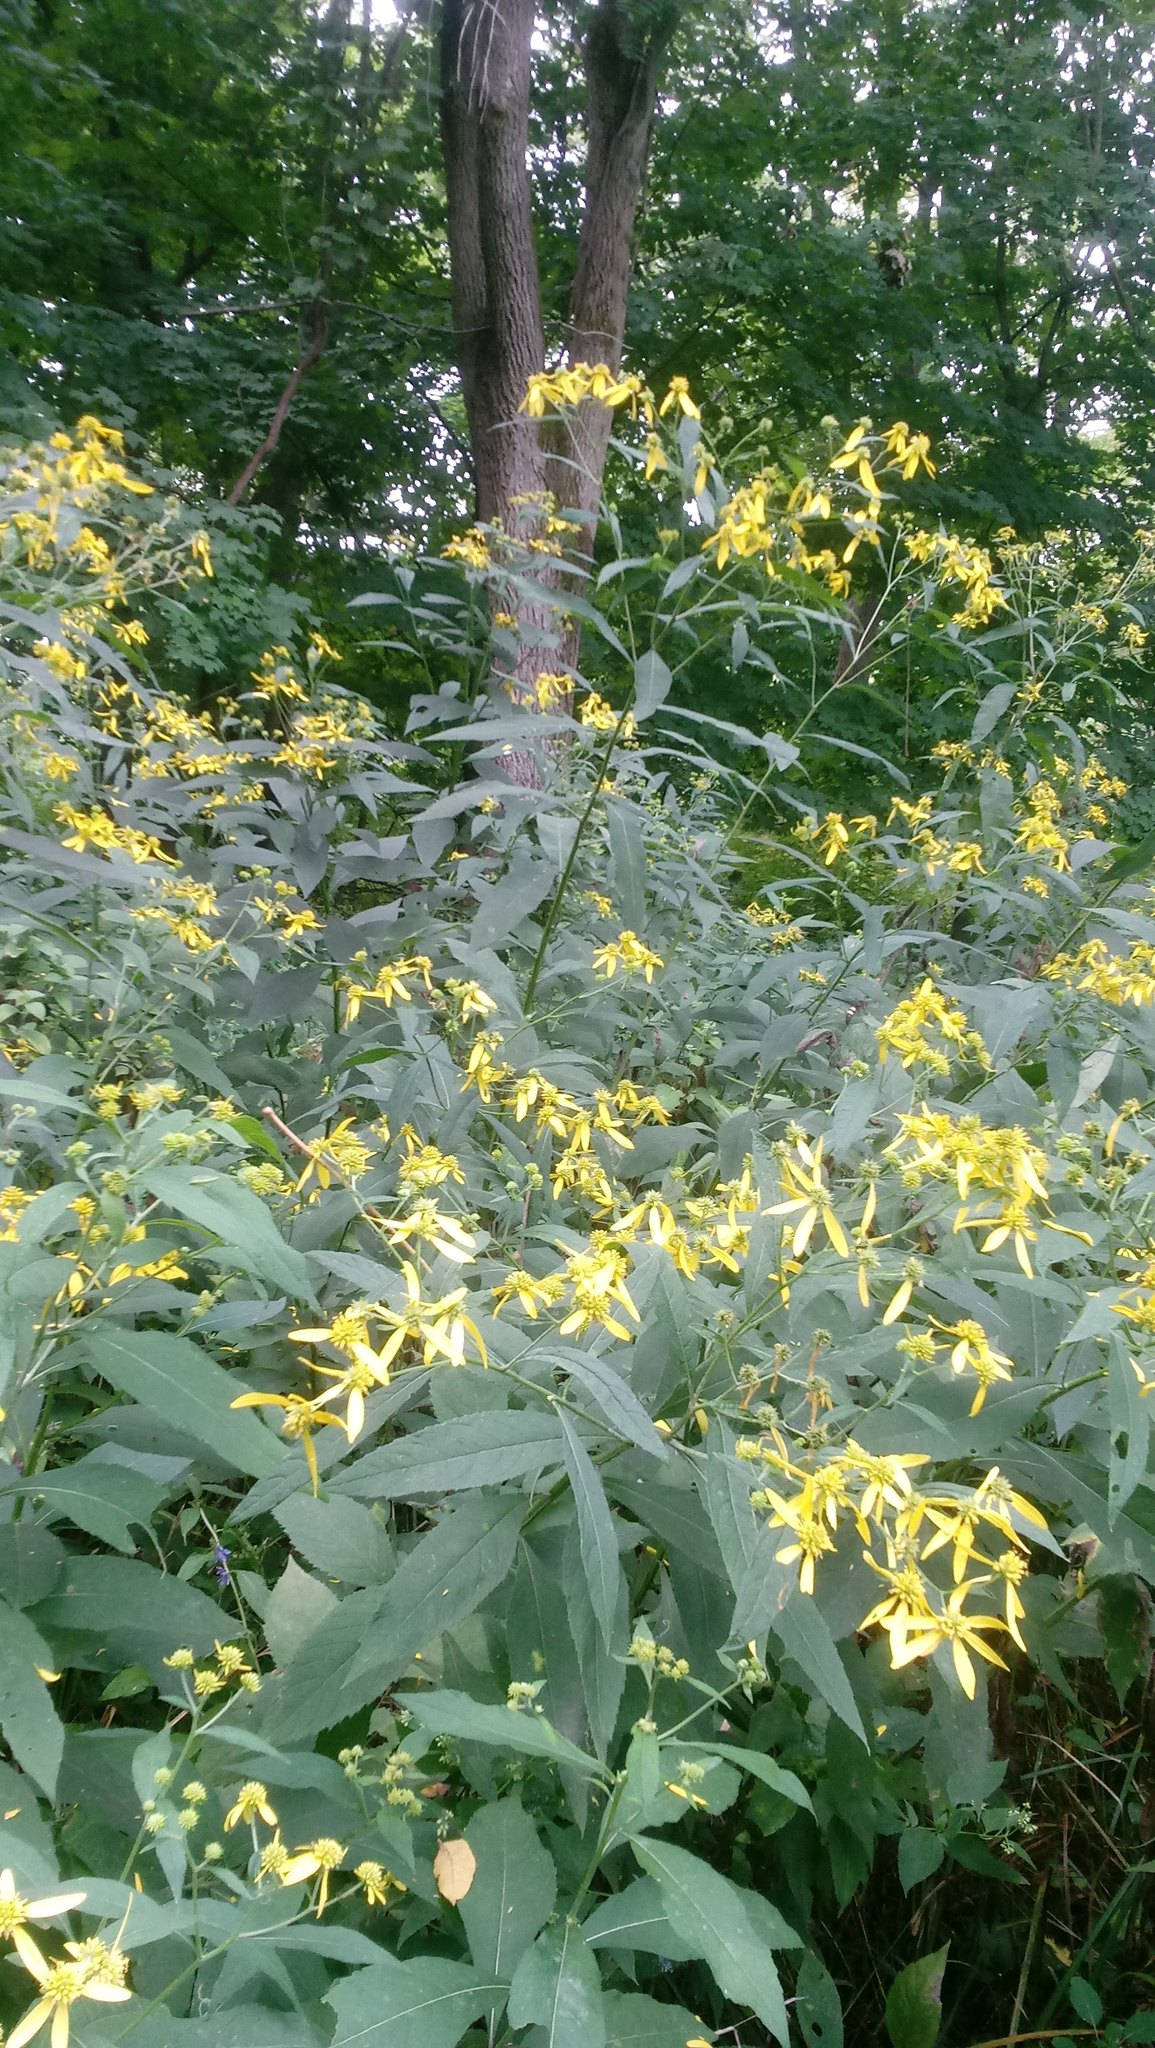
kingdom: Plantae
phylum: Tracheophyta
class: Magnoliopsida
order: Asterales
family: Asteraceae
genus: Verbesina
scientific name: Verbesina alternifolia
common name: Wingstem
